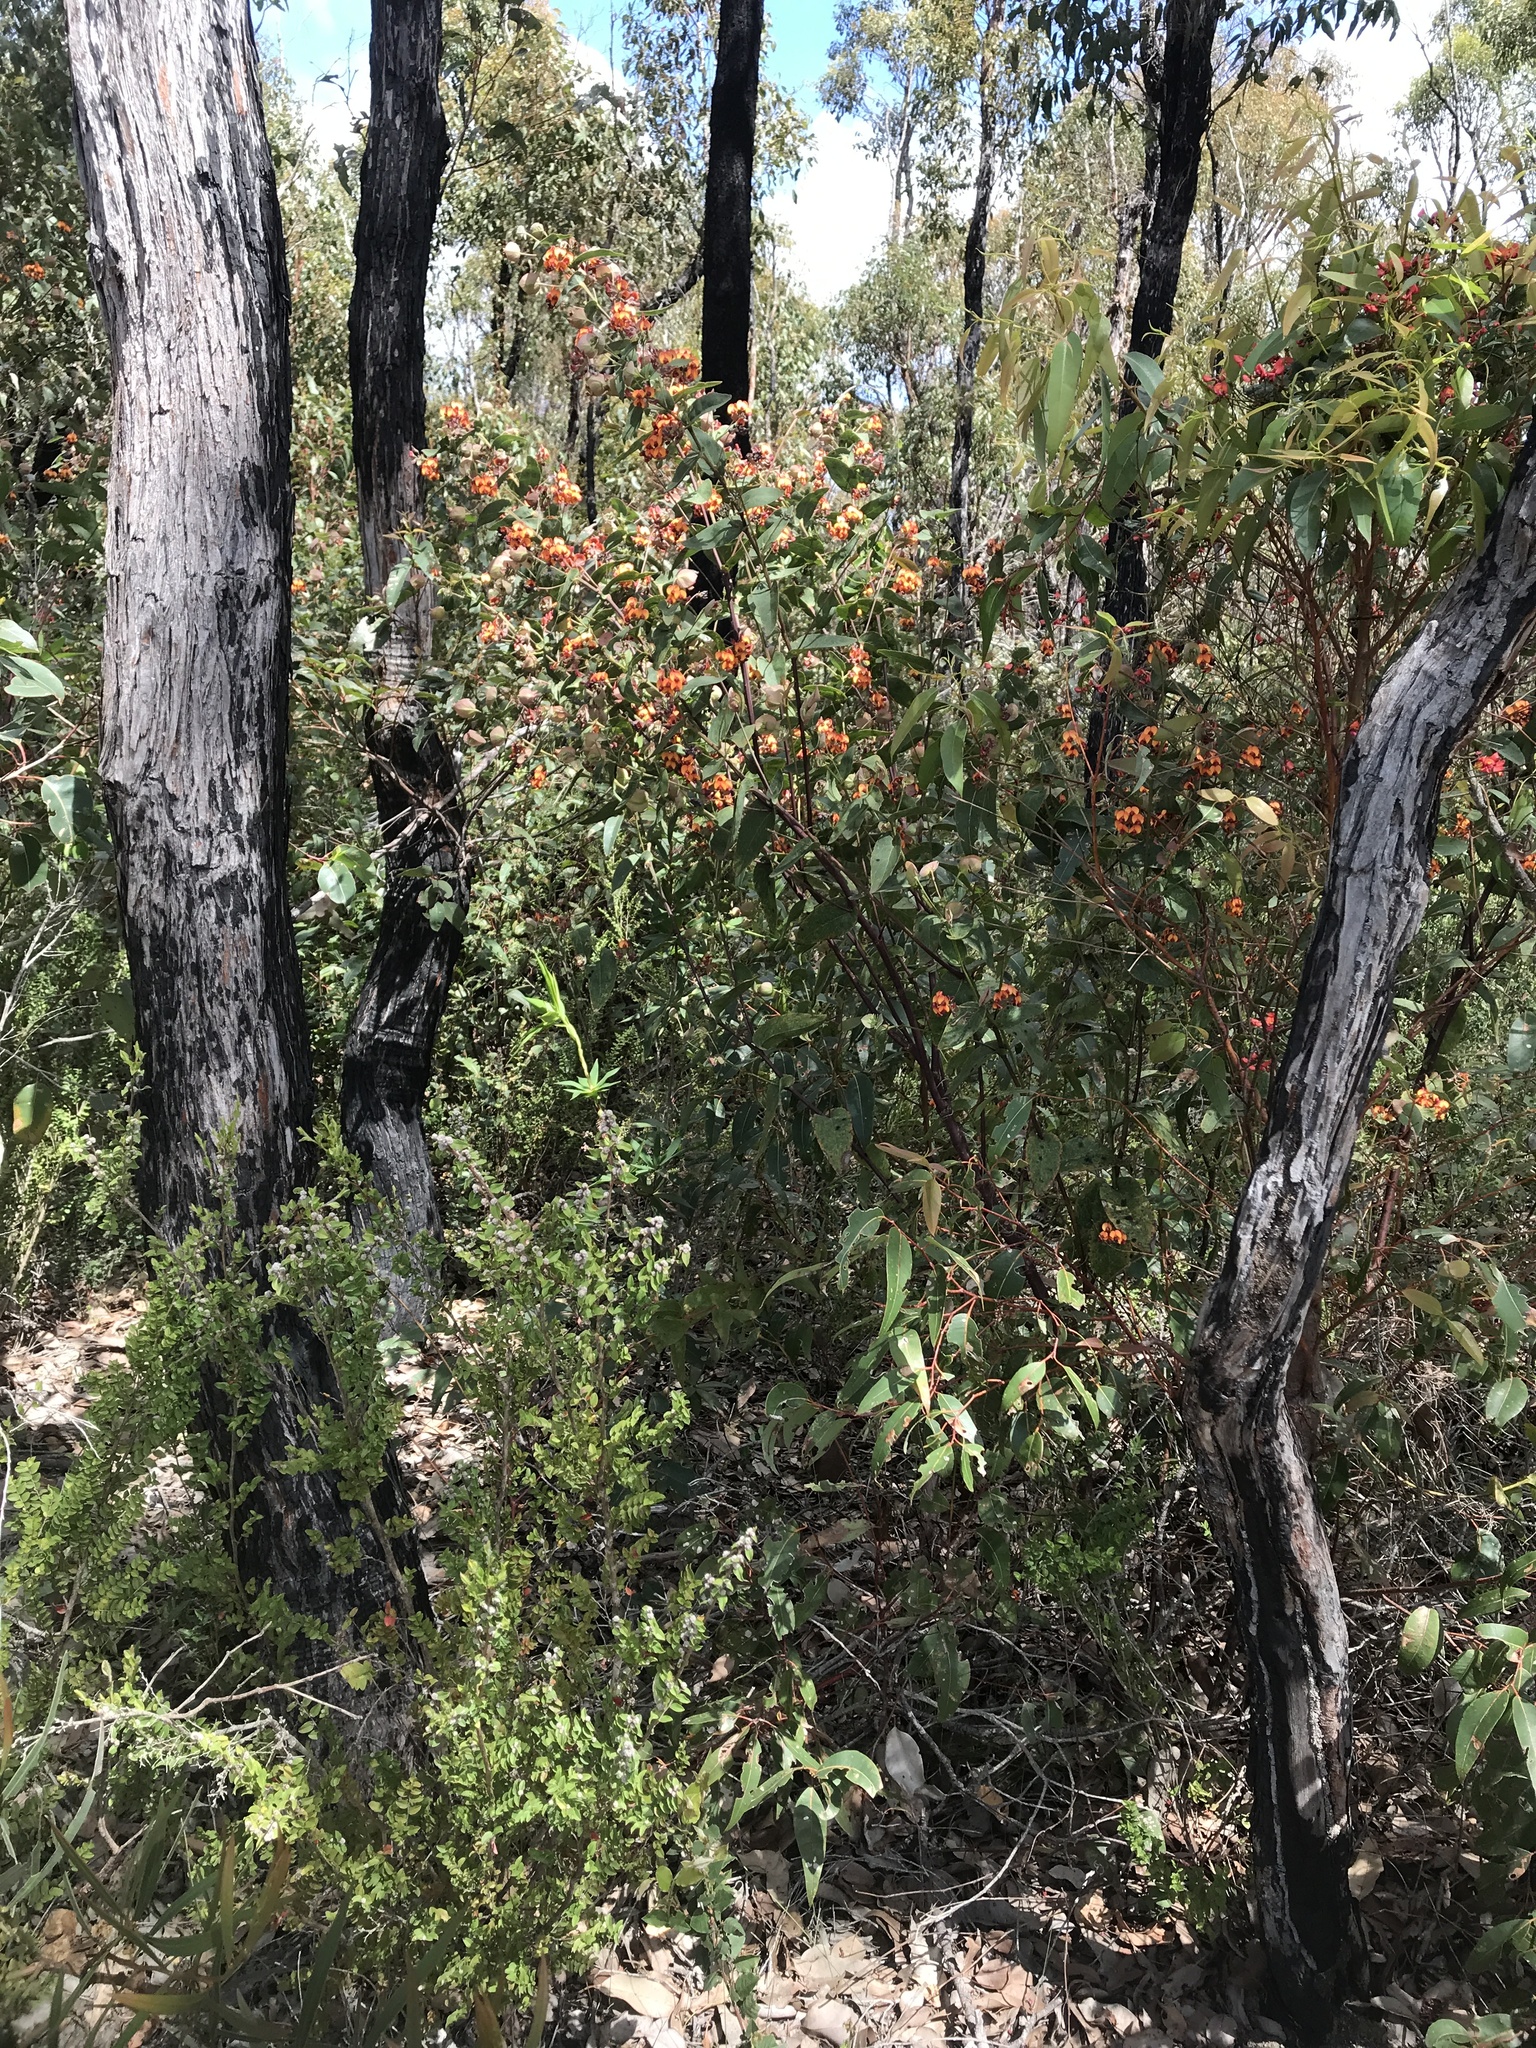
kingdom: Plantae
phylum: Tracheophyta
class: Magnoliopsida
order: Fabales
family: Fabaceae
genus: Daviesia
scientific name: Daviesia cordata
